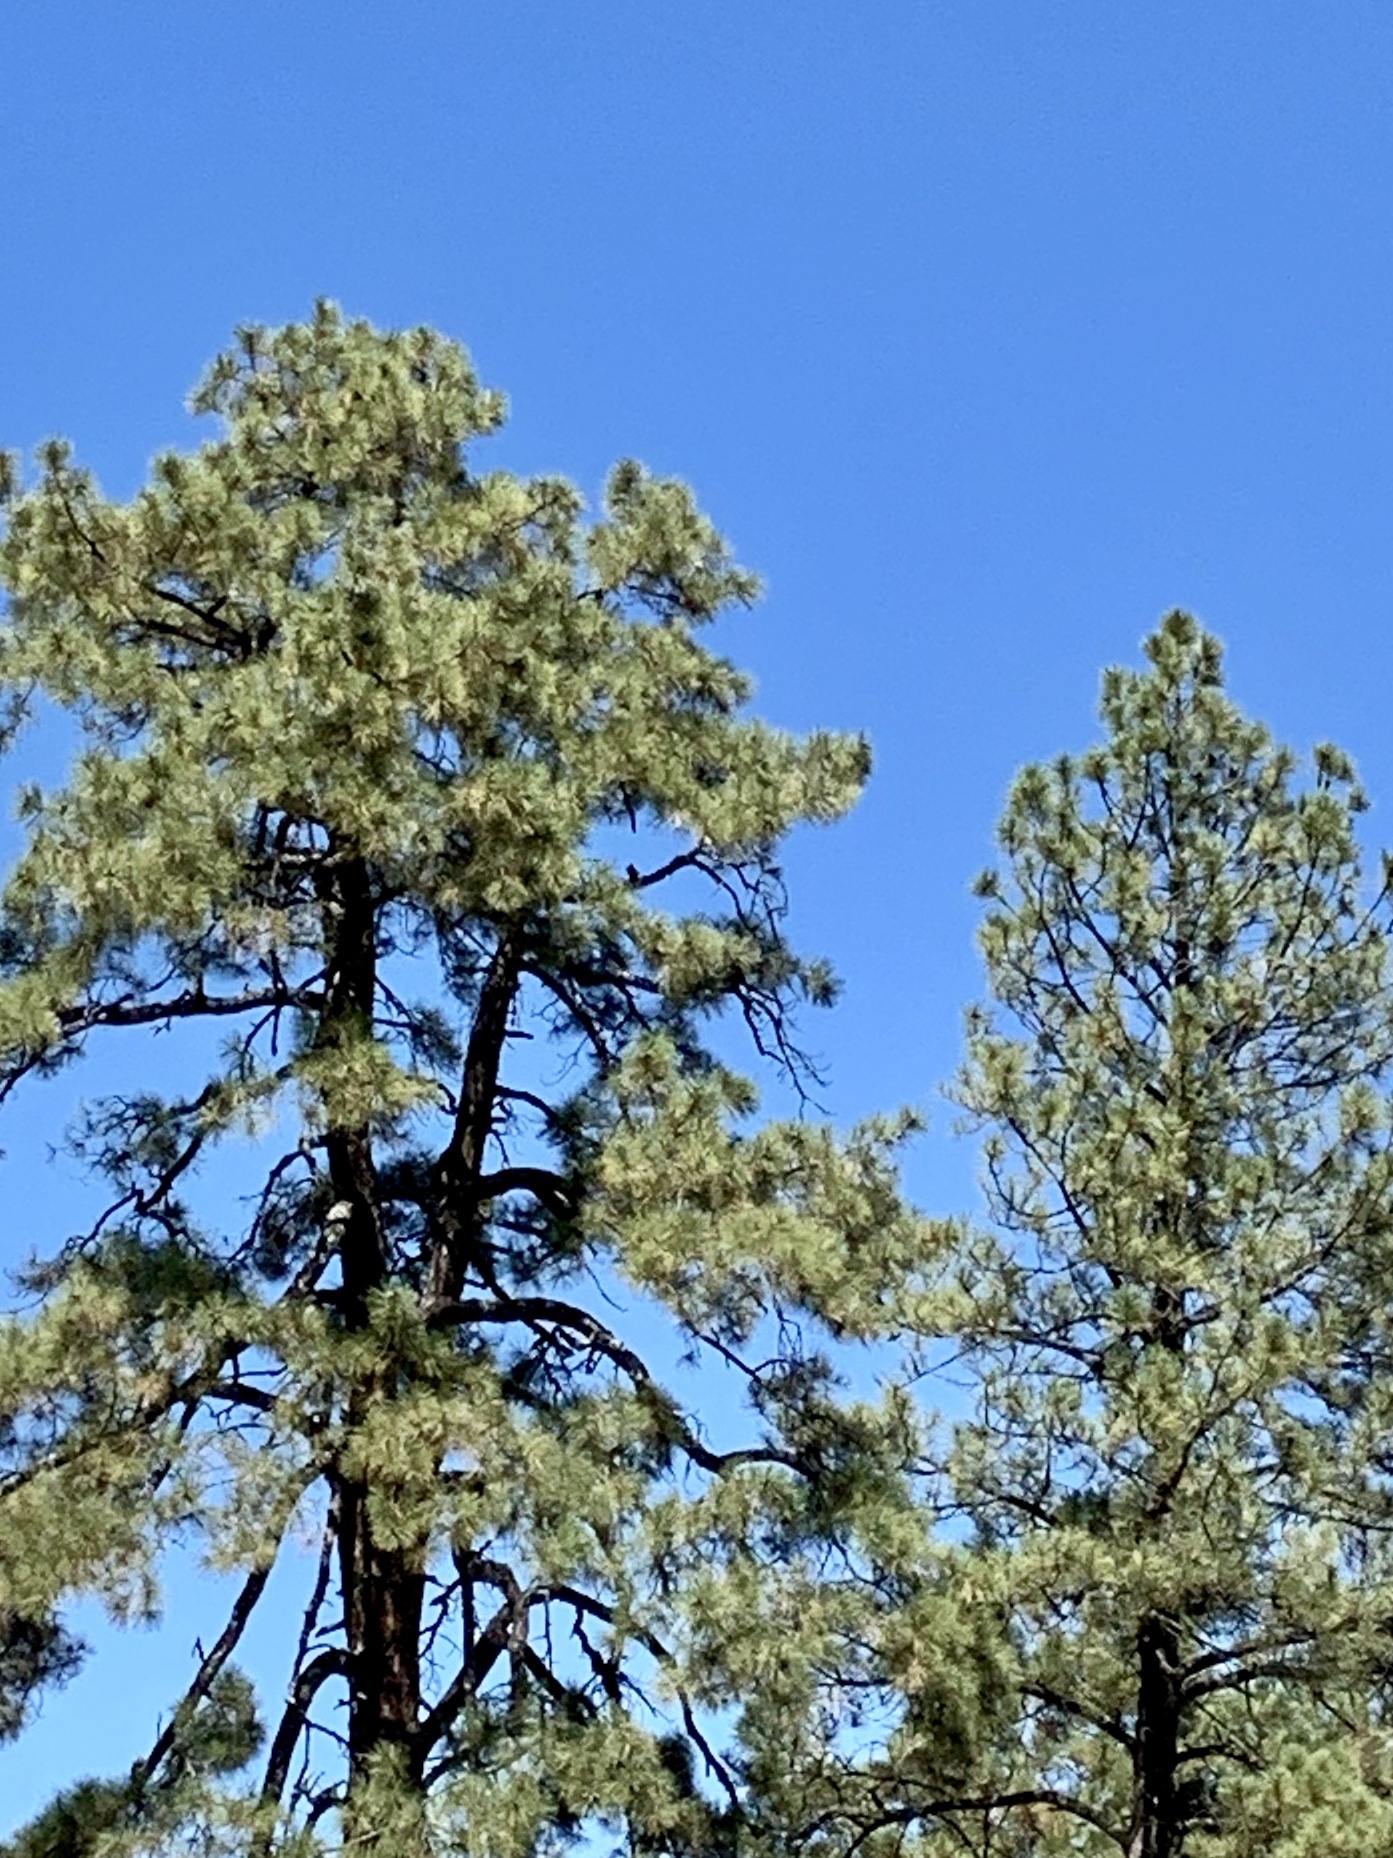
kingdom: Plantae
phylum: Tracheophyta
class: Pinopsida
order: Pinales
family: Pinaceae
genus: Pinus
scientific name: Pinus ponderosa
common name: Western yellow-pine
